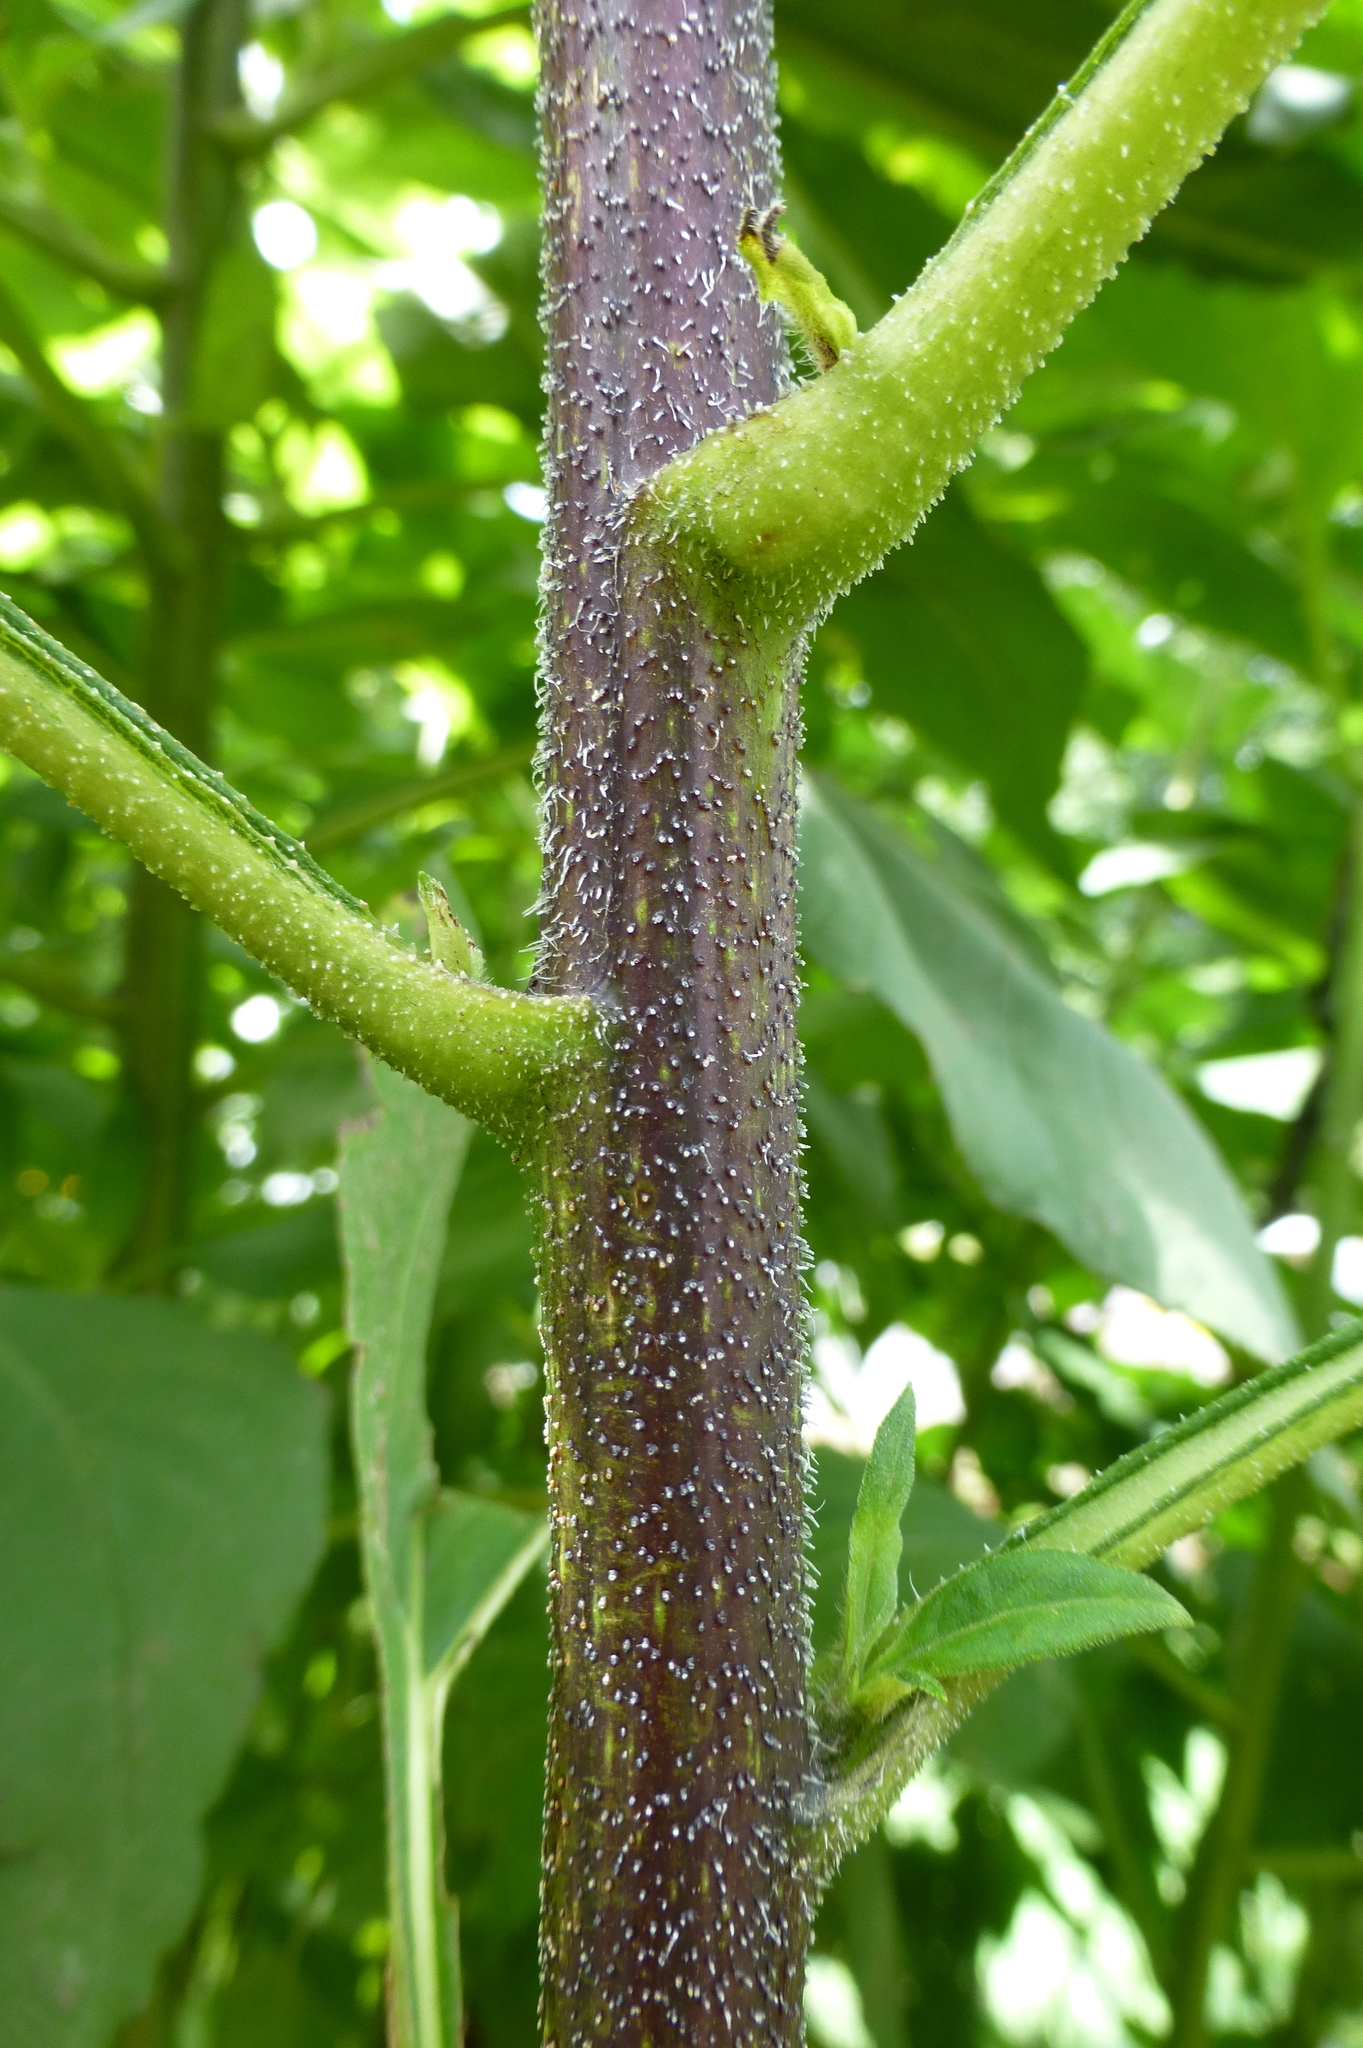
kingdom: Plantae
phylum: Tracheophyta
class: Magnoliopsida
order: Asterales
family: Asteraceae
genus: Helianthus
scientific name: Helianthus tuberosus
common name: Jerusalem artichoke
